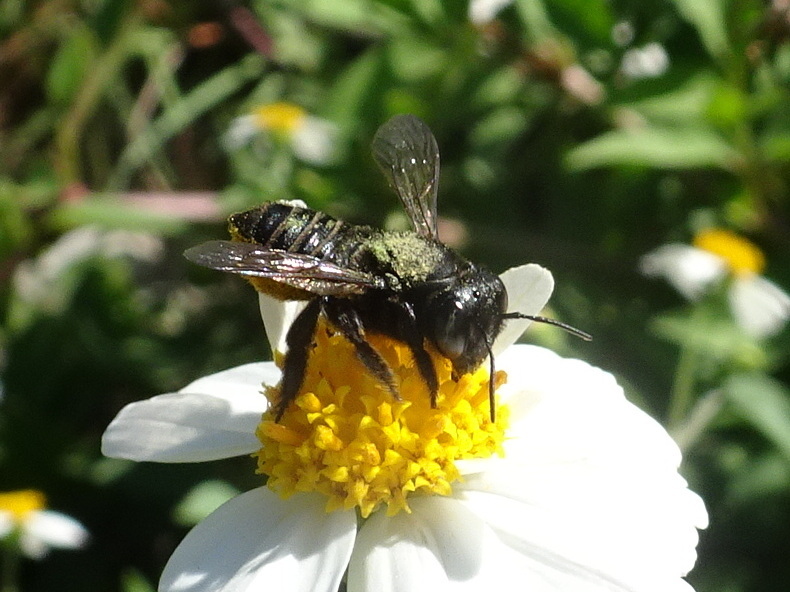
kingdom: Animalia
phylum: Arthropoda
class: Insecta
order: Hymenoptera
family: Megachilidae
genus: Megachile
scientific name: Megachile pruina
